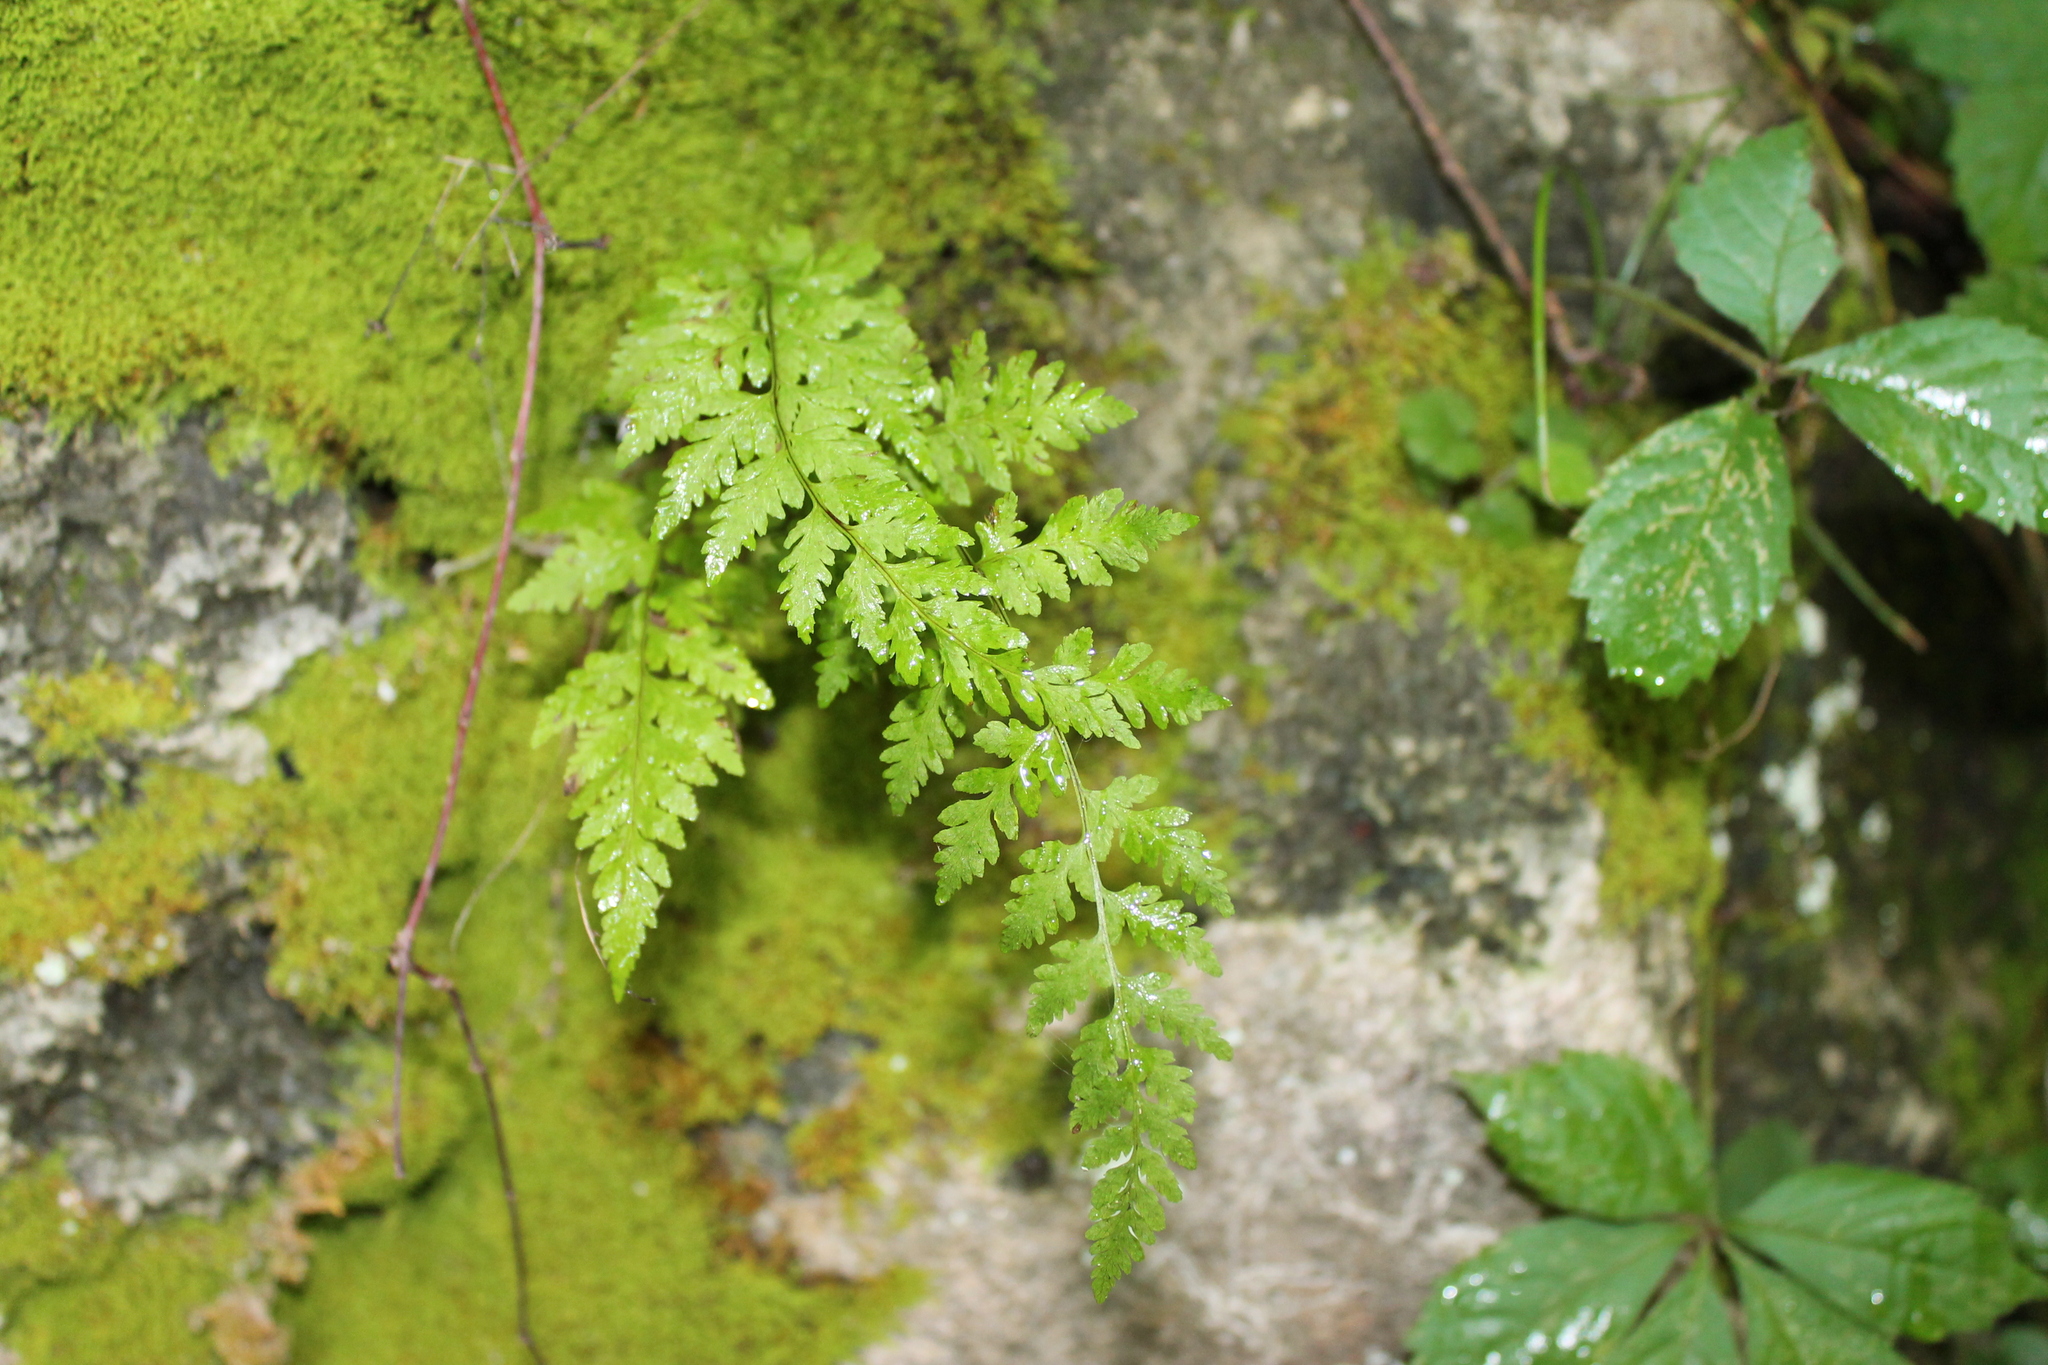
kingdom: Plantae
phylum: Tracheophyta
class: Polypodiopsida
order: Polypodiales
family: Cystopteridaceae
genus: Cystopteris
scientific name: Cystopteris tennesseensis
